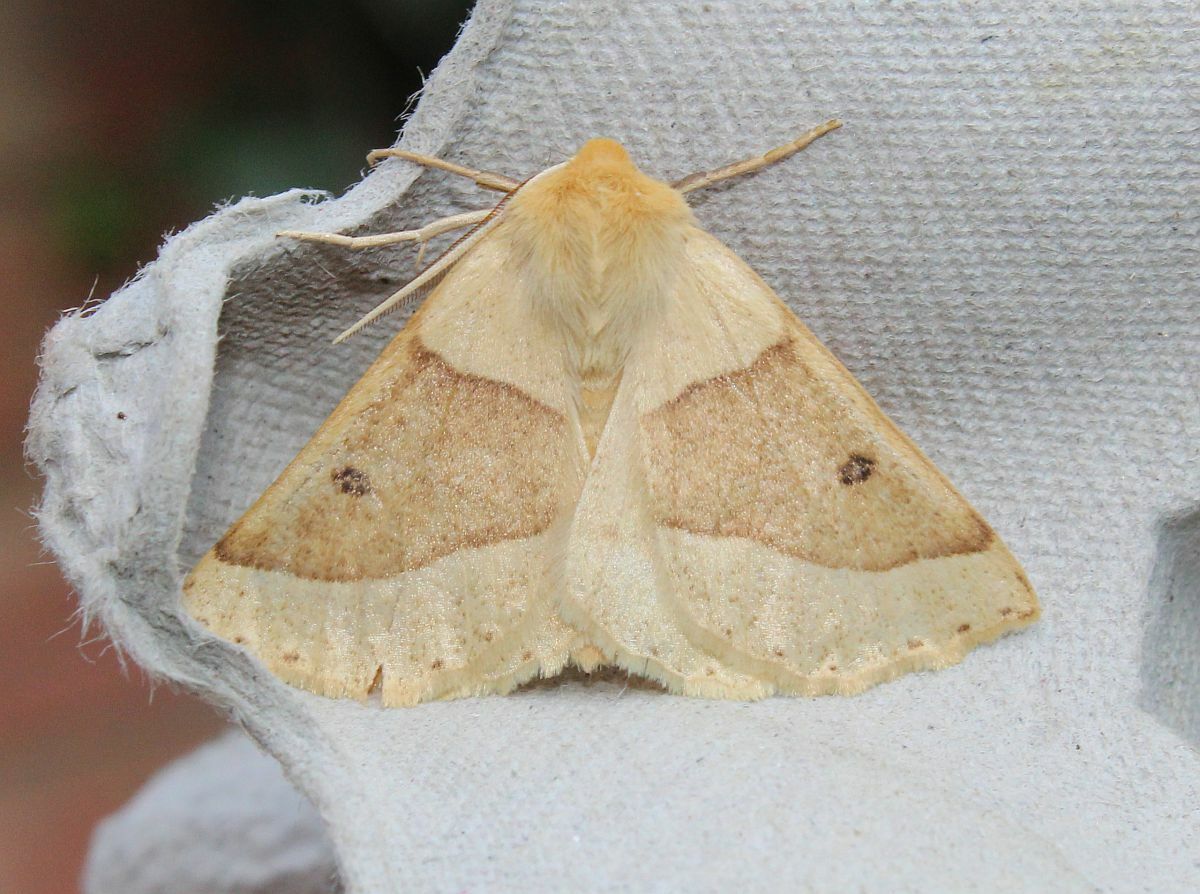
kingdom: Animalia
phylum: Arthropoda
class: Insecta
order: Lepidoptera
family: Geometridae
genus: Crocallis
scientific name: Crocallis elinguaria
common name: Scalloped oak
